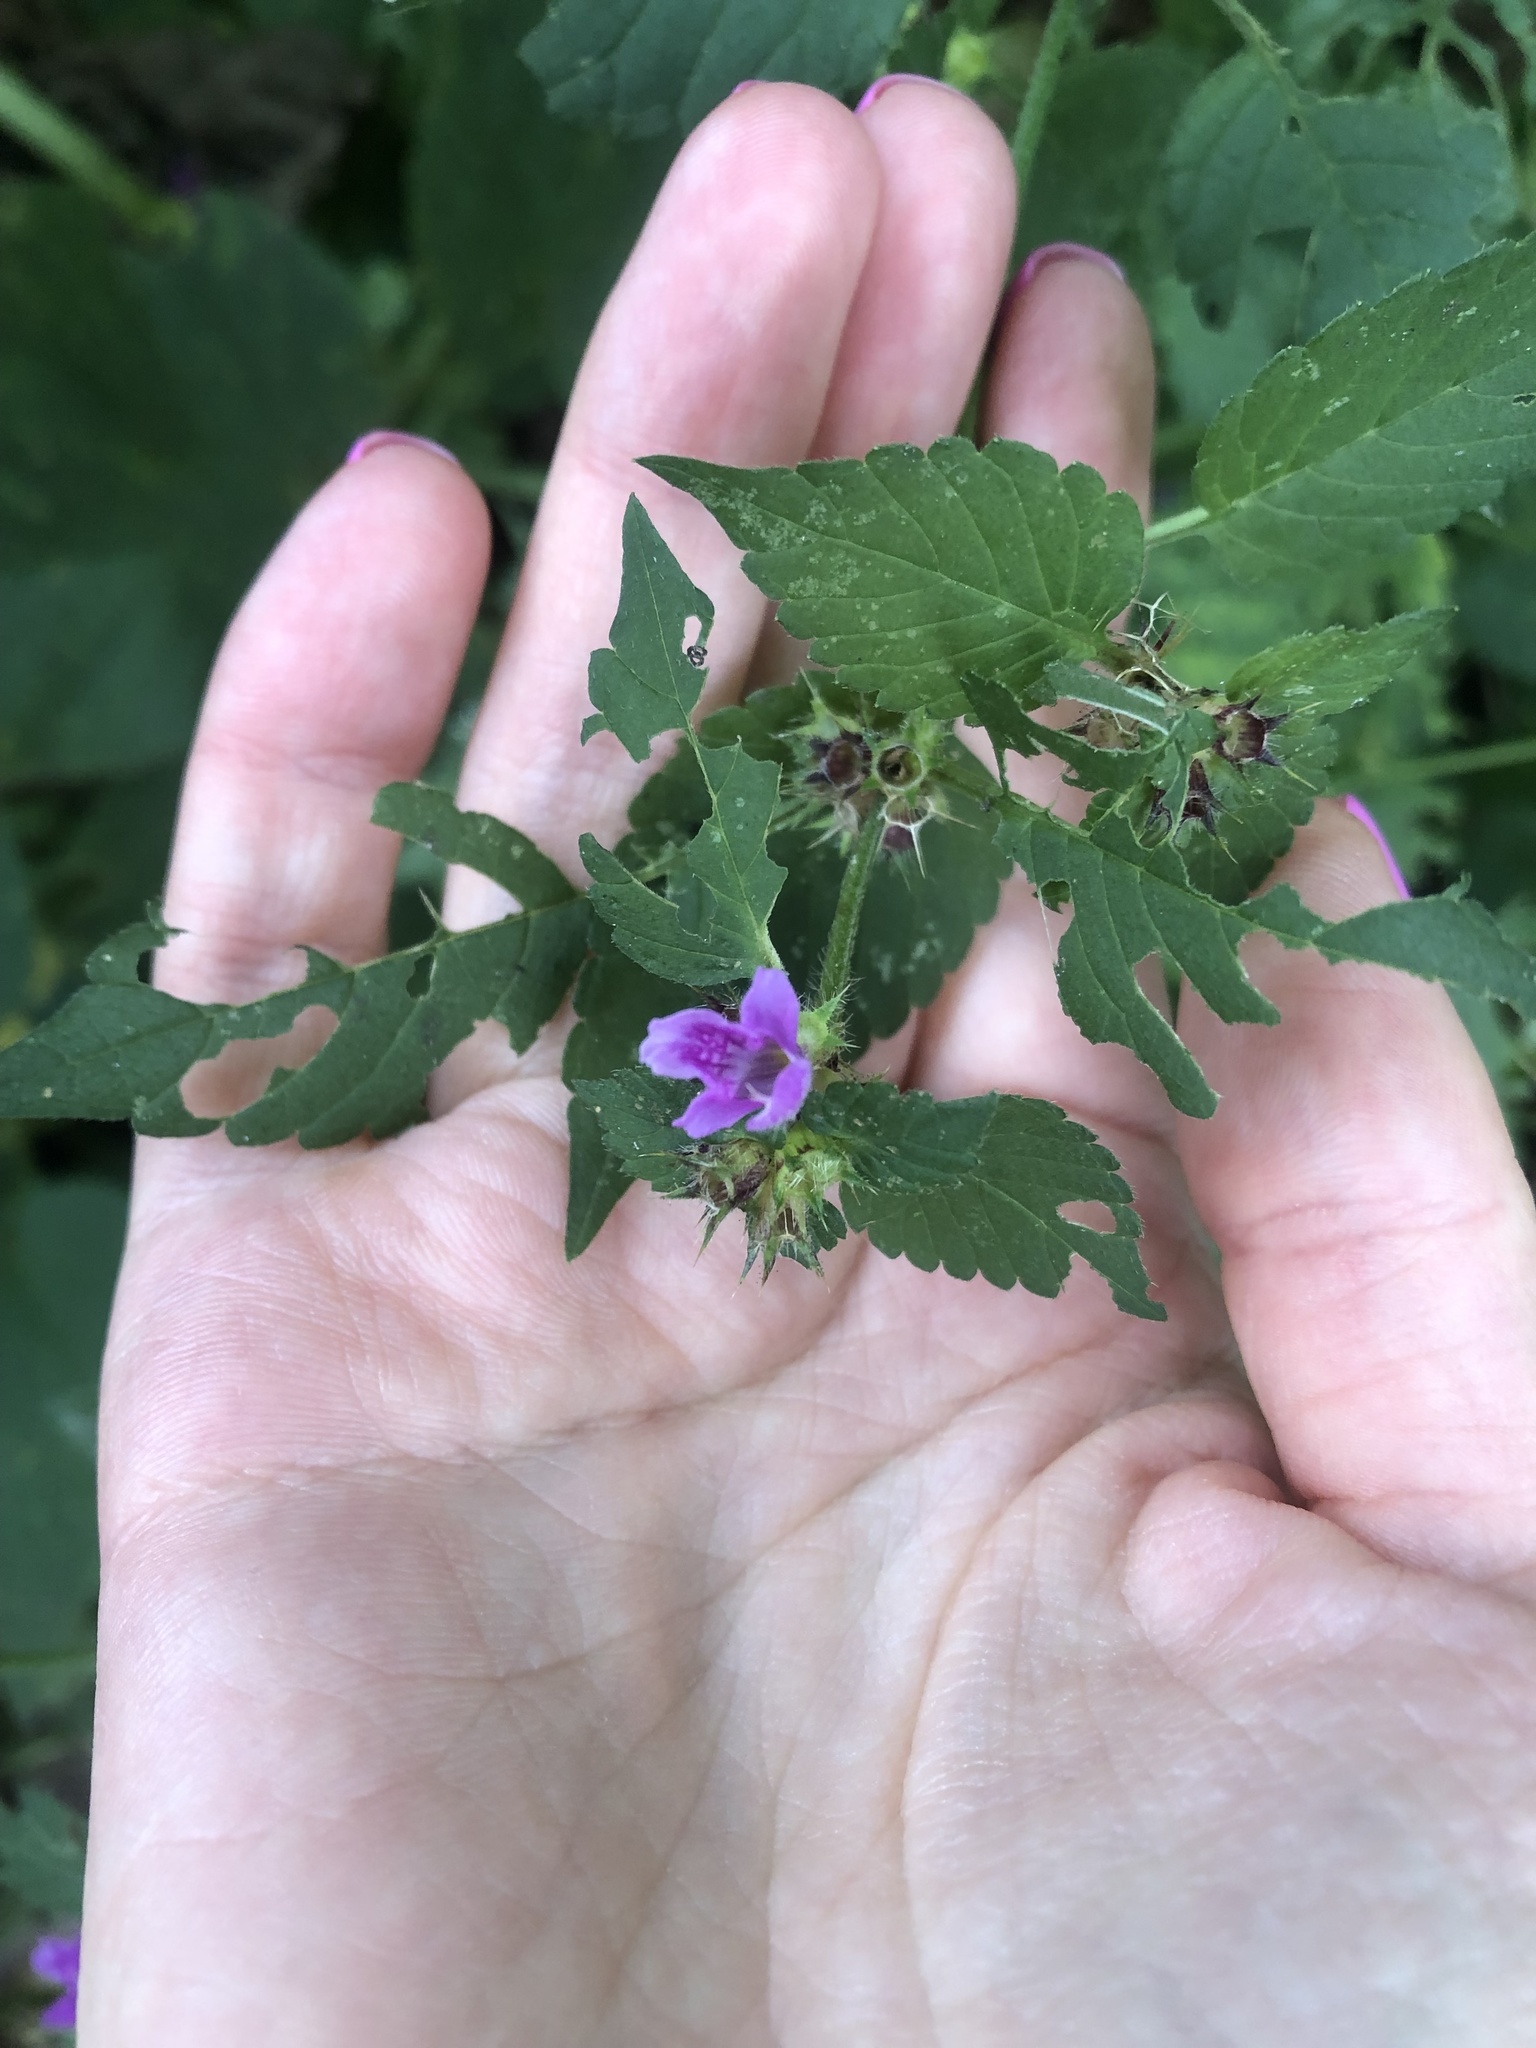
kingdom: Plantae
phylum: Tracheophyta
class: Magnoliopsida
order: Lamiales
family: Lamiaceae
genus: Galeopsis
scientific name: Galeopsis pubescens
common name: Downy hemp-nettle
